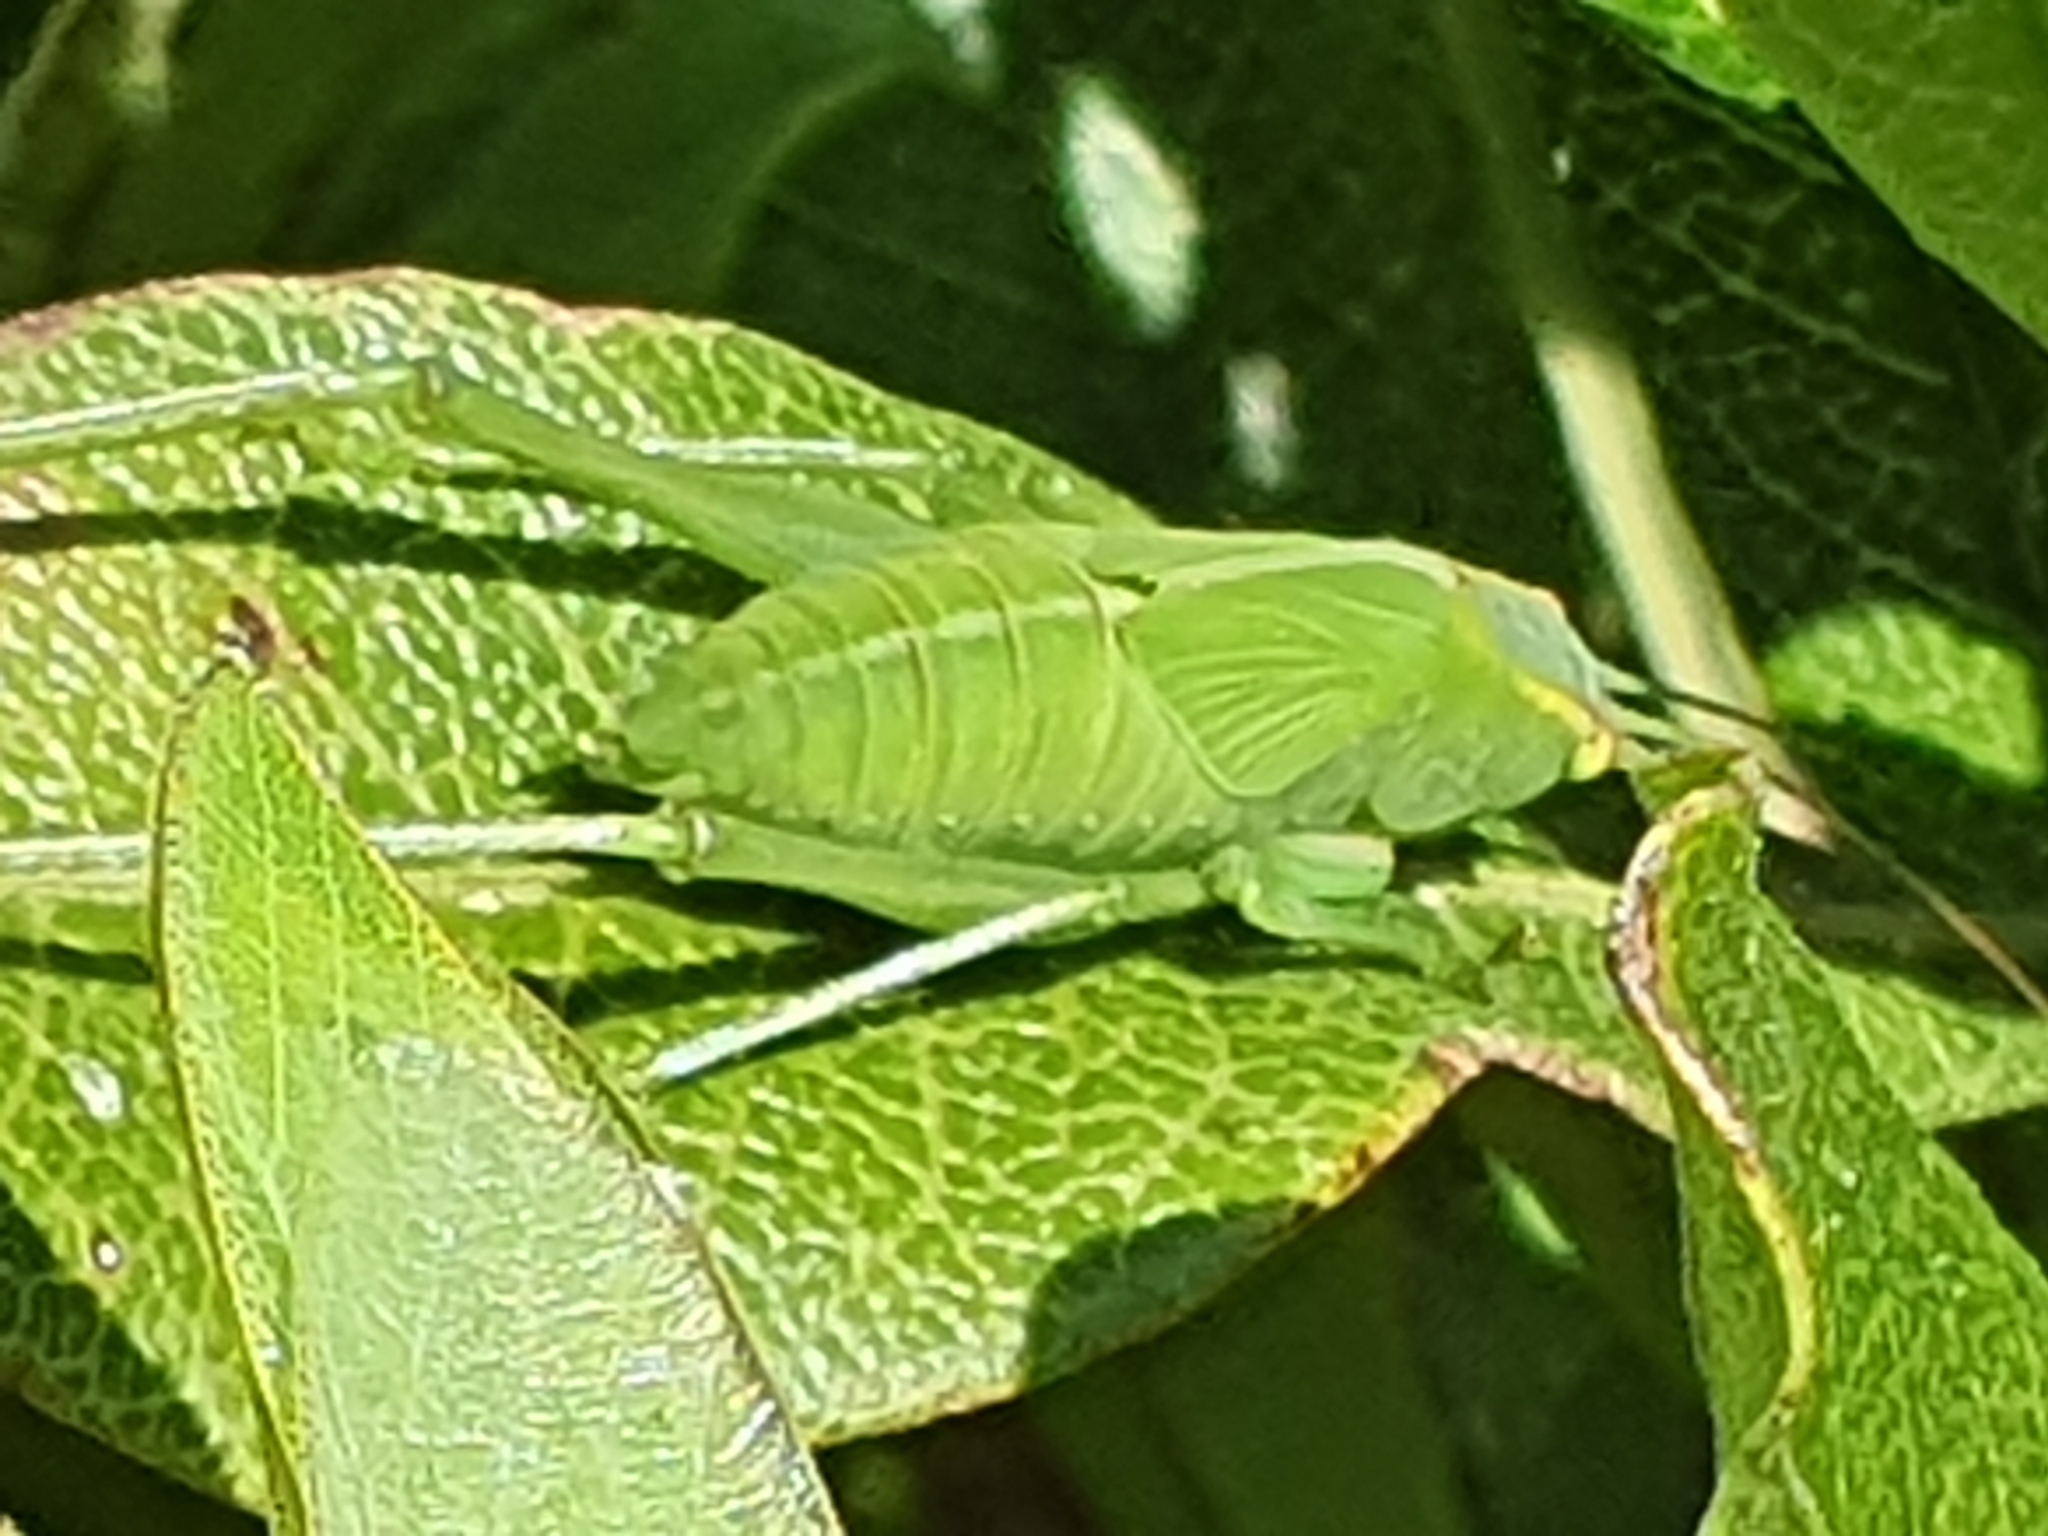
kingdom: Animalia
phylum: Arthropoda
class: Insecta
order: Orthoptera
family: Tettigoniidae
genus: Caedicia
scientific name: Caedicia simplex
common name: Common garden katydid
